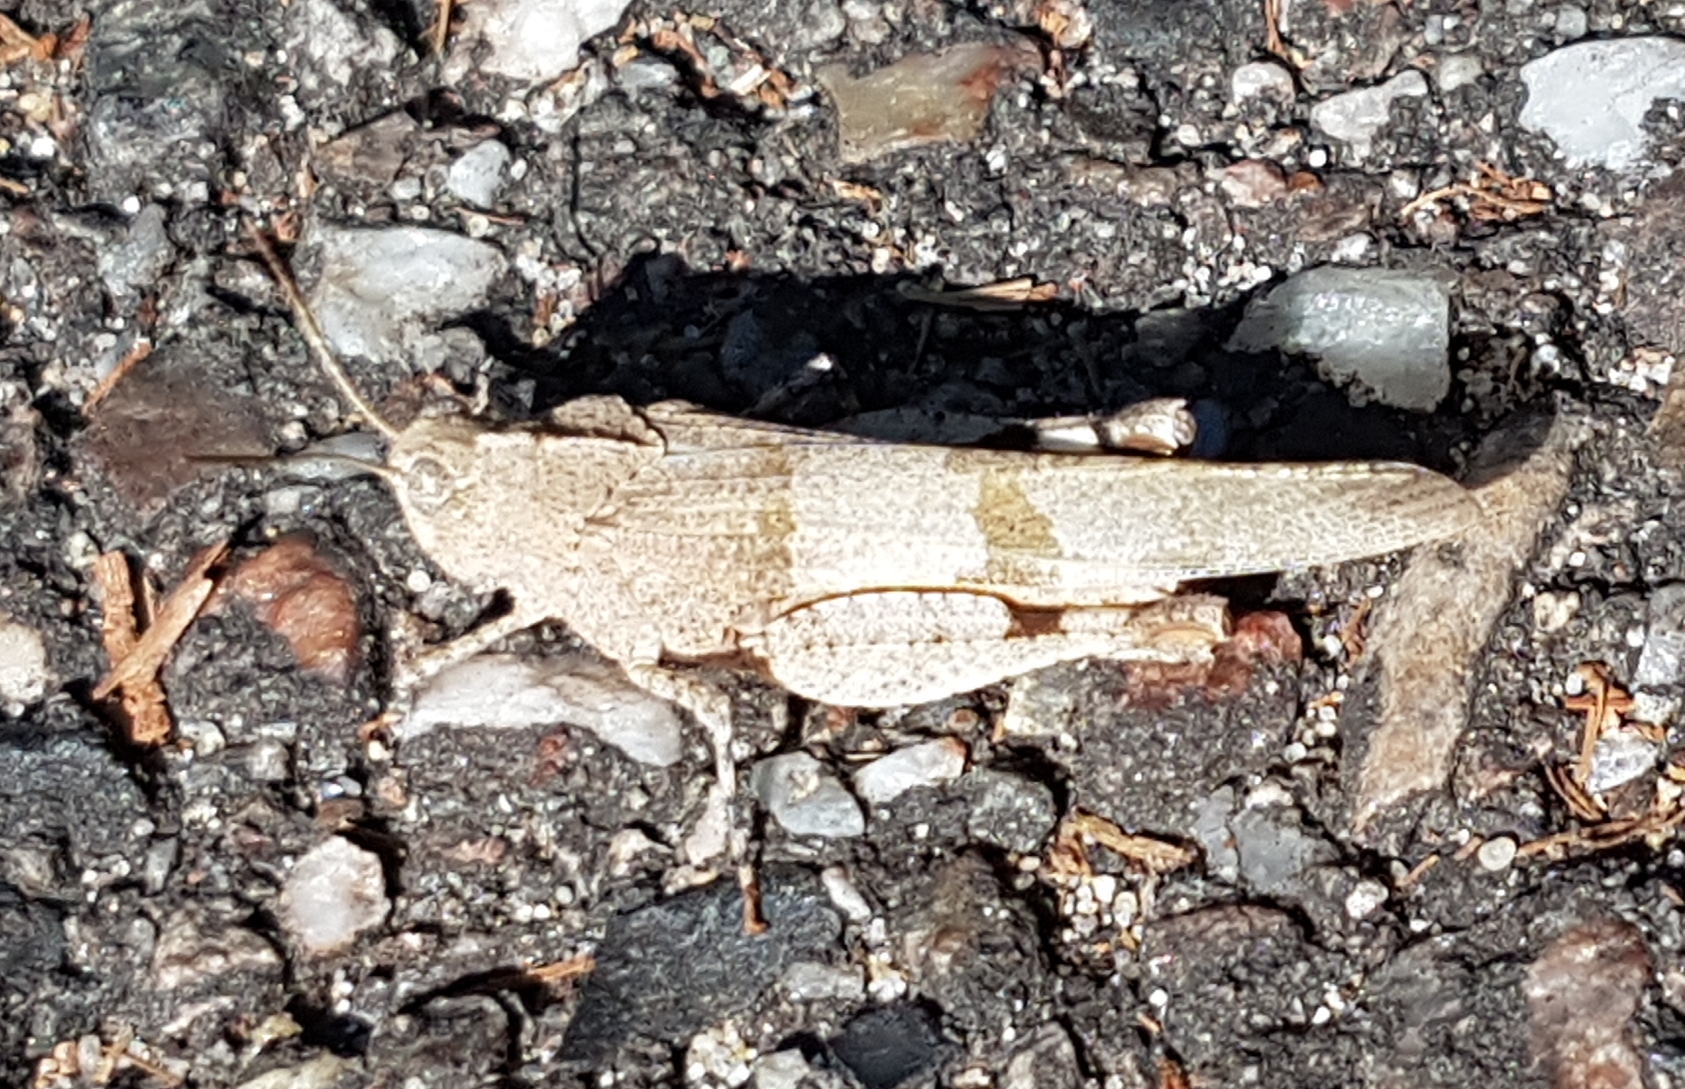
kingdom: Animalia
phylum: Arthropoda
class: Insecta
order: Orthoptera
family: Acrididae
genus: Oedipoda
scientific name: Oedipoda caerulescens
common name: Blue-winged grasshopper
